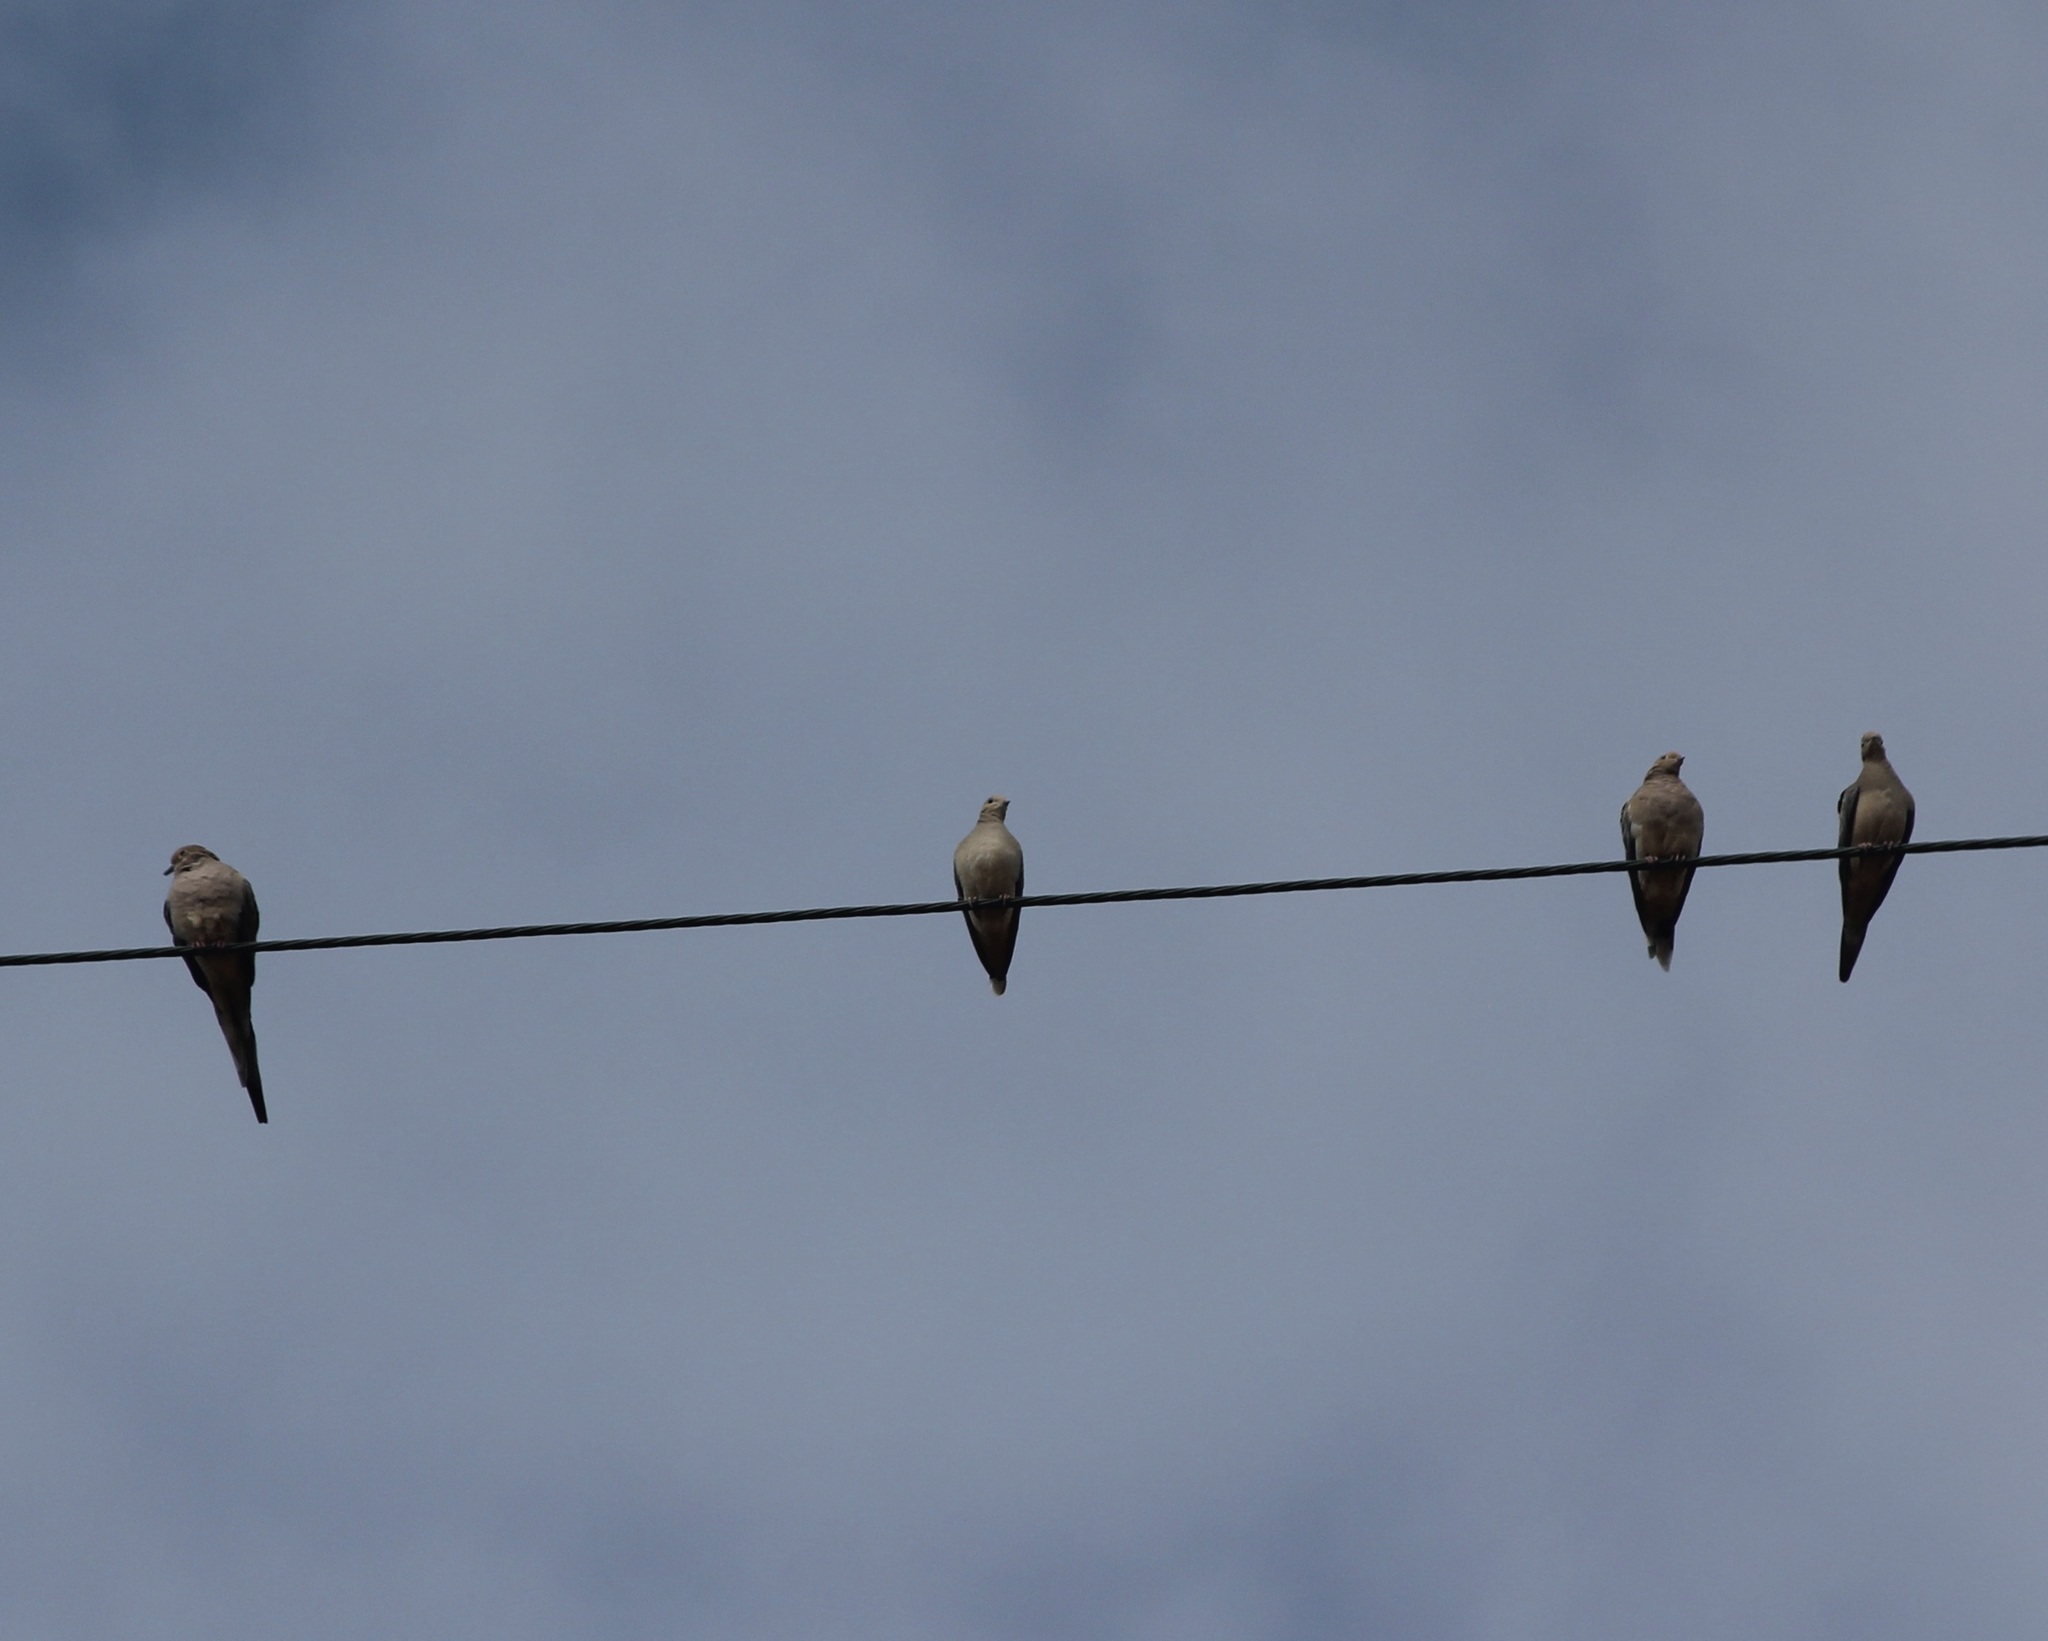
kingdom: Animalia
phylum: Chordata
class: Aves
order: Columbiformes
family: Columbidae
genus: Zenaida
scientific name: Zenaida macroura
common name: Mourning dove
